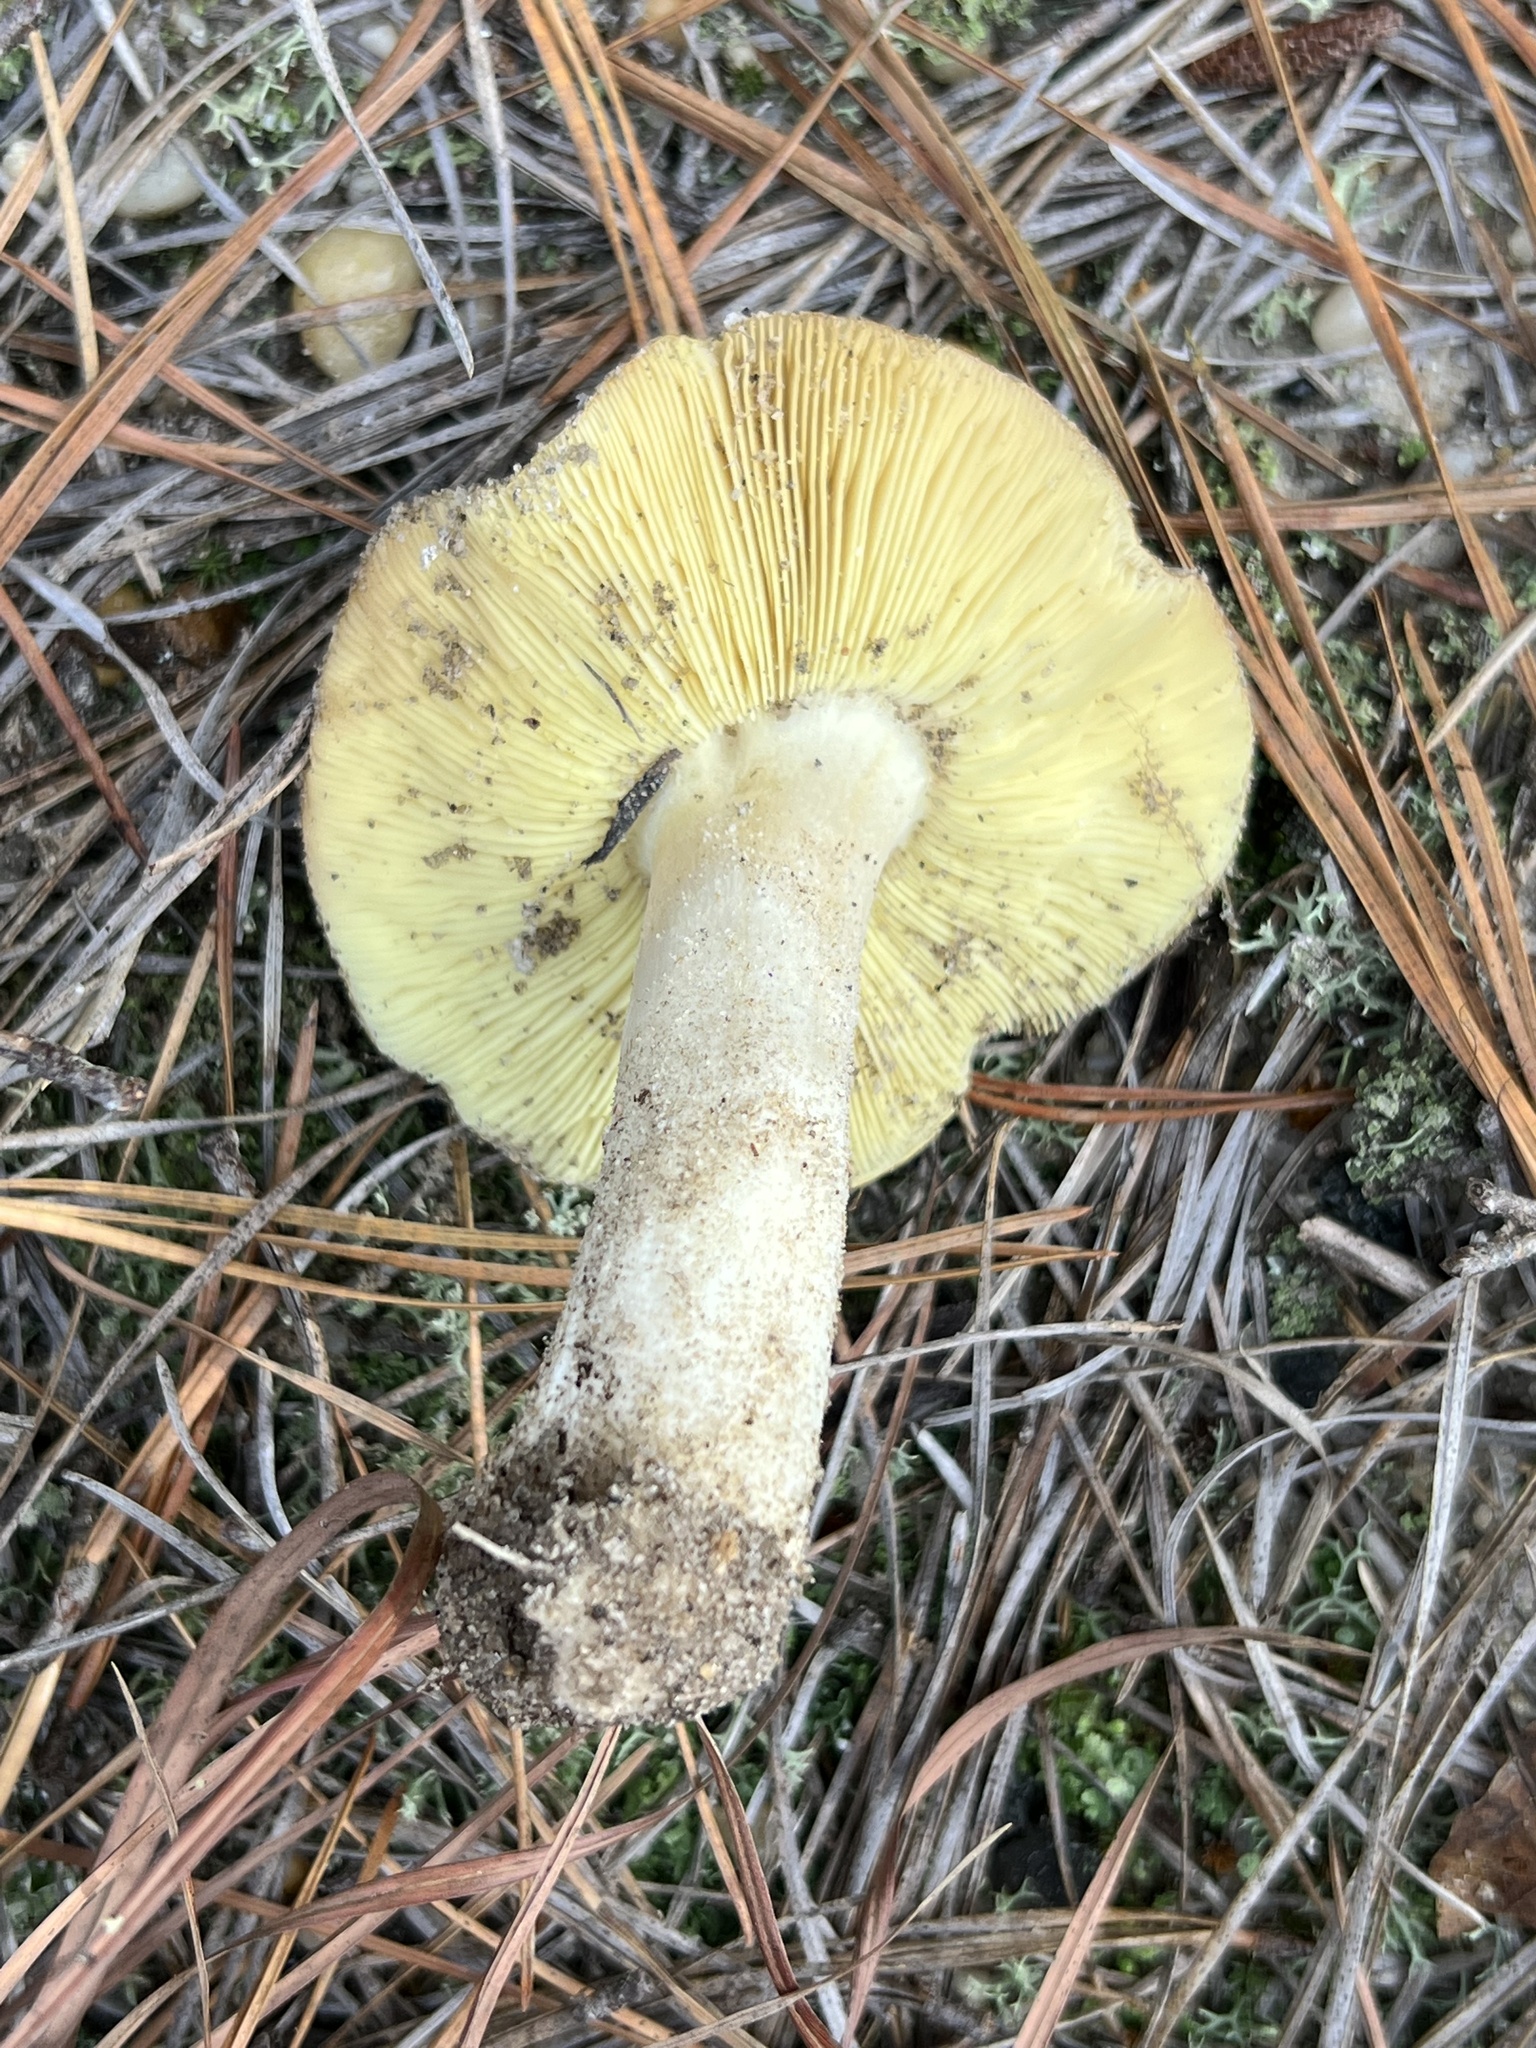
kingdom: Fungi
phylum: Basidiomycota
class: Agaricomycetes
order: Agaricales
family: Tricholomataceae
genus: Tricholoma
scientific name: Tricholoma equestre
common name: Yellow knight
